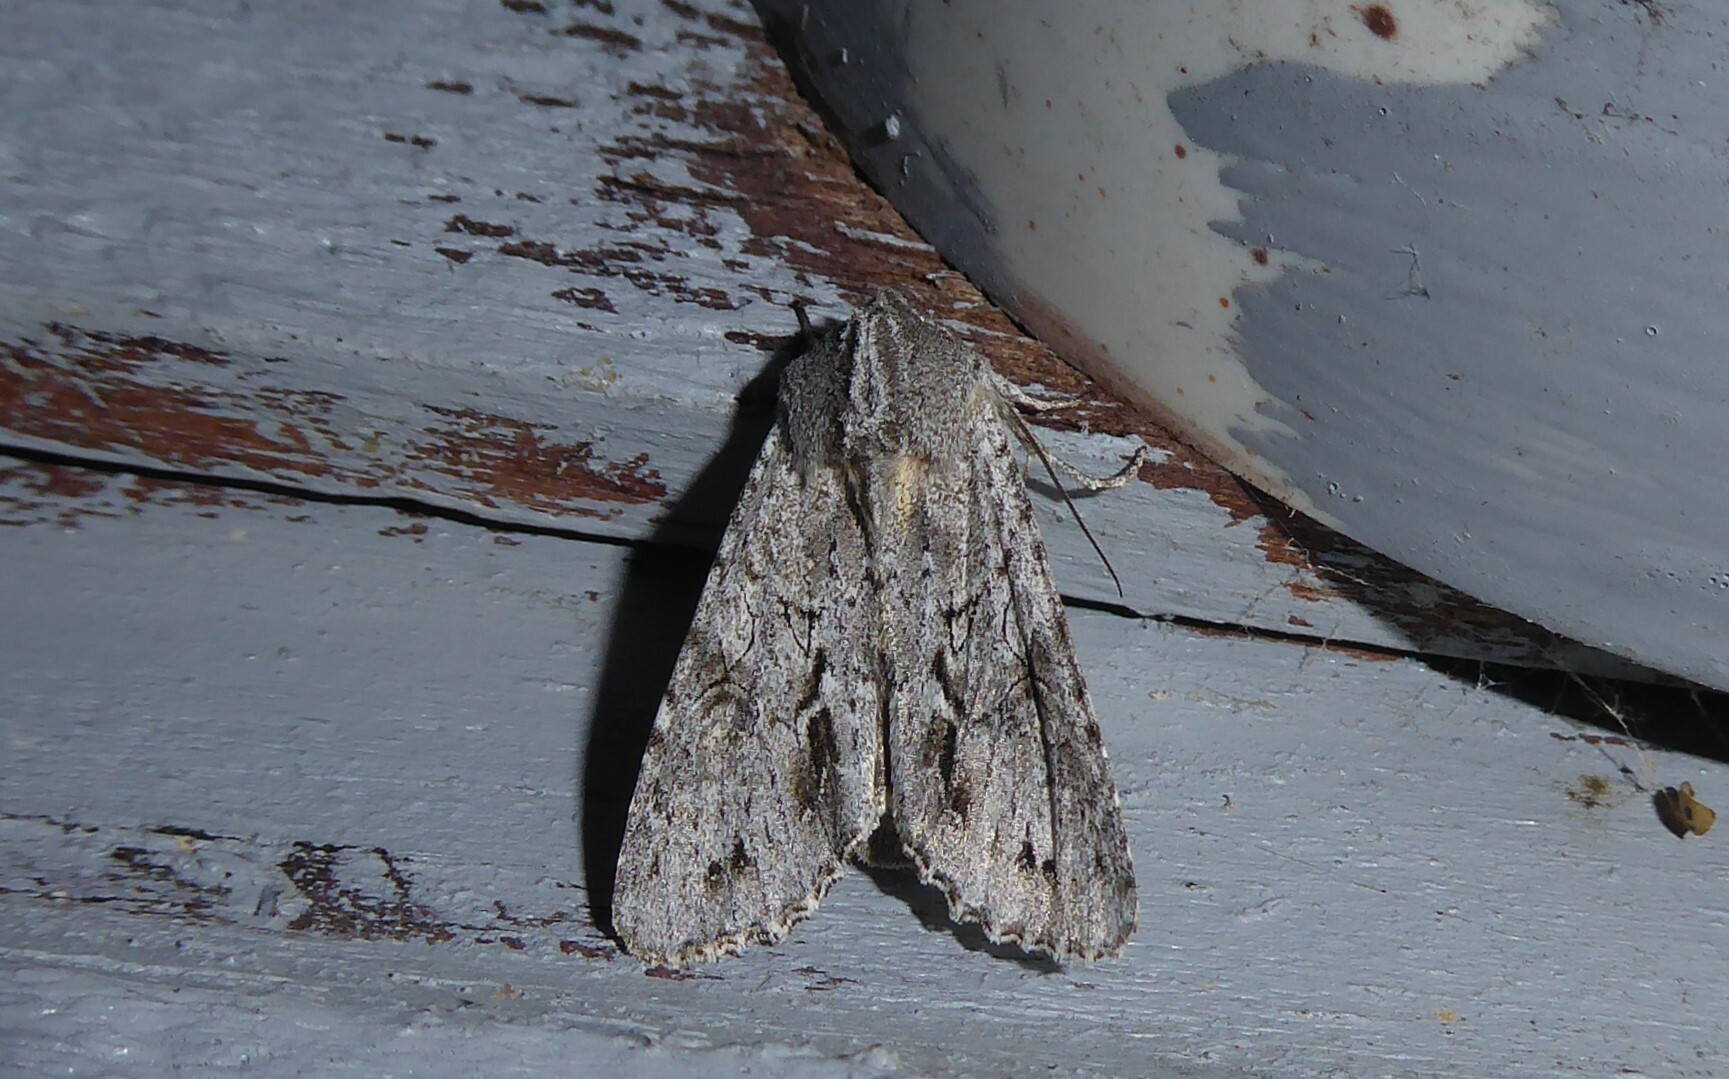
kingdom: Animalia
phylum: Arthropoda
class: Insecta
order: Lepidoptera
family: Noctuidae
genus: Ichneutica
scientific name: Ichneutica
